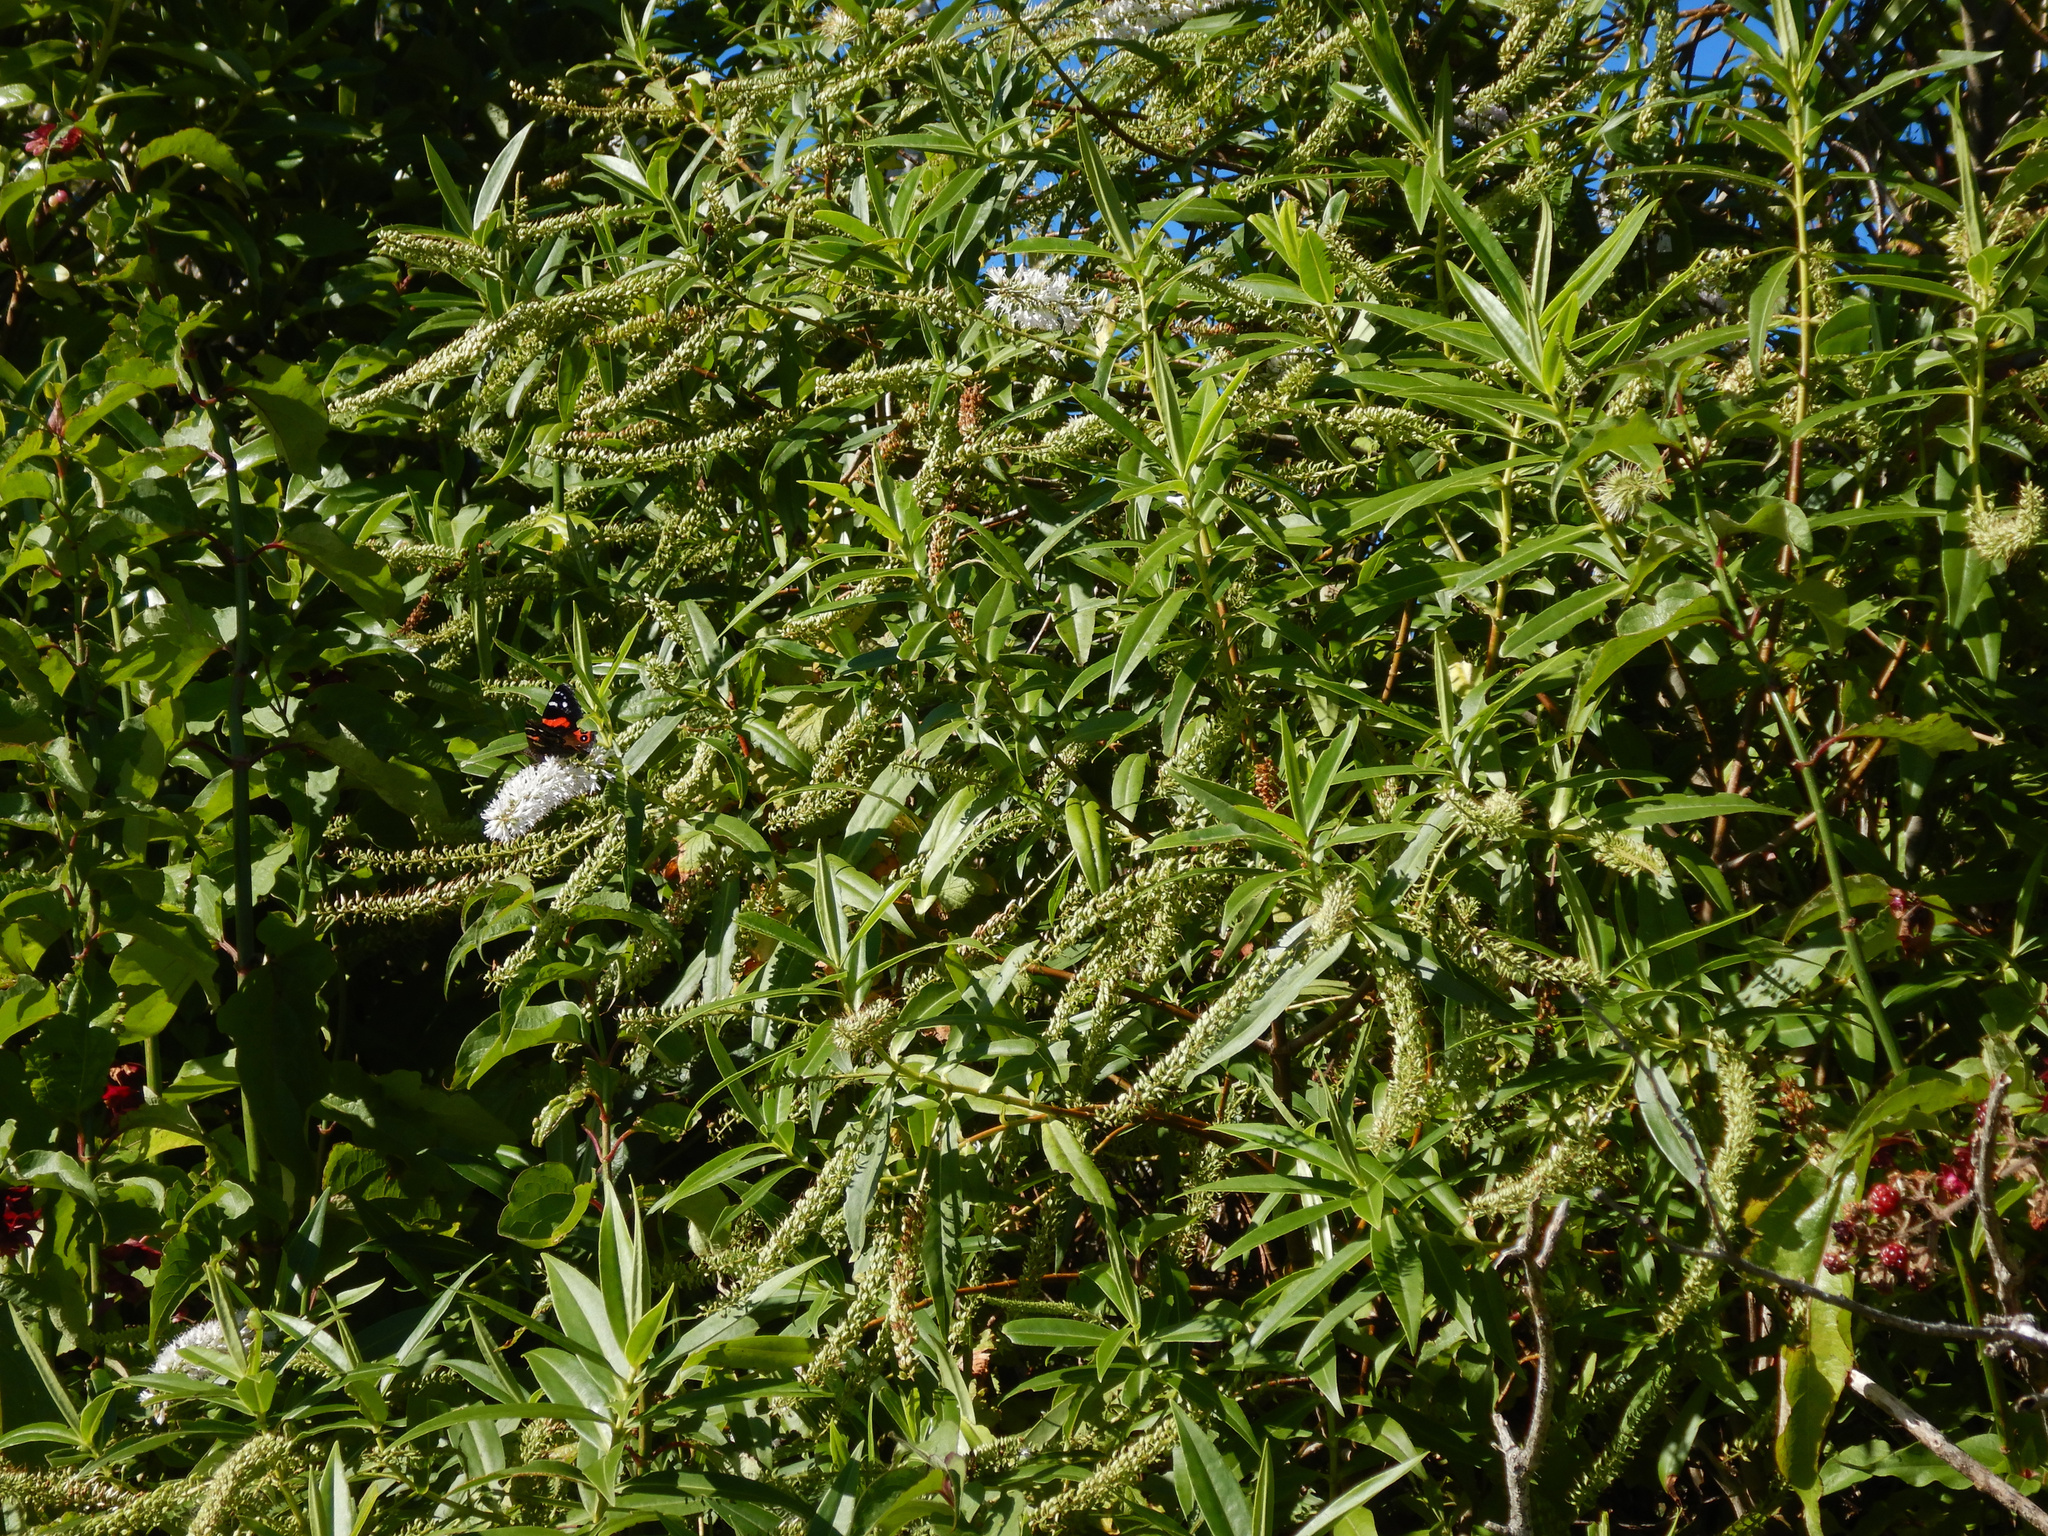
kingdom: Plantae
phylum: Tracheophyta
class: Magnoliopsida
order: Lamiales
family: Plantaginaceae
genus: Veronica
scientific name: Veronica salicifolia
